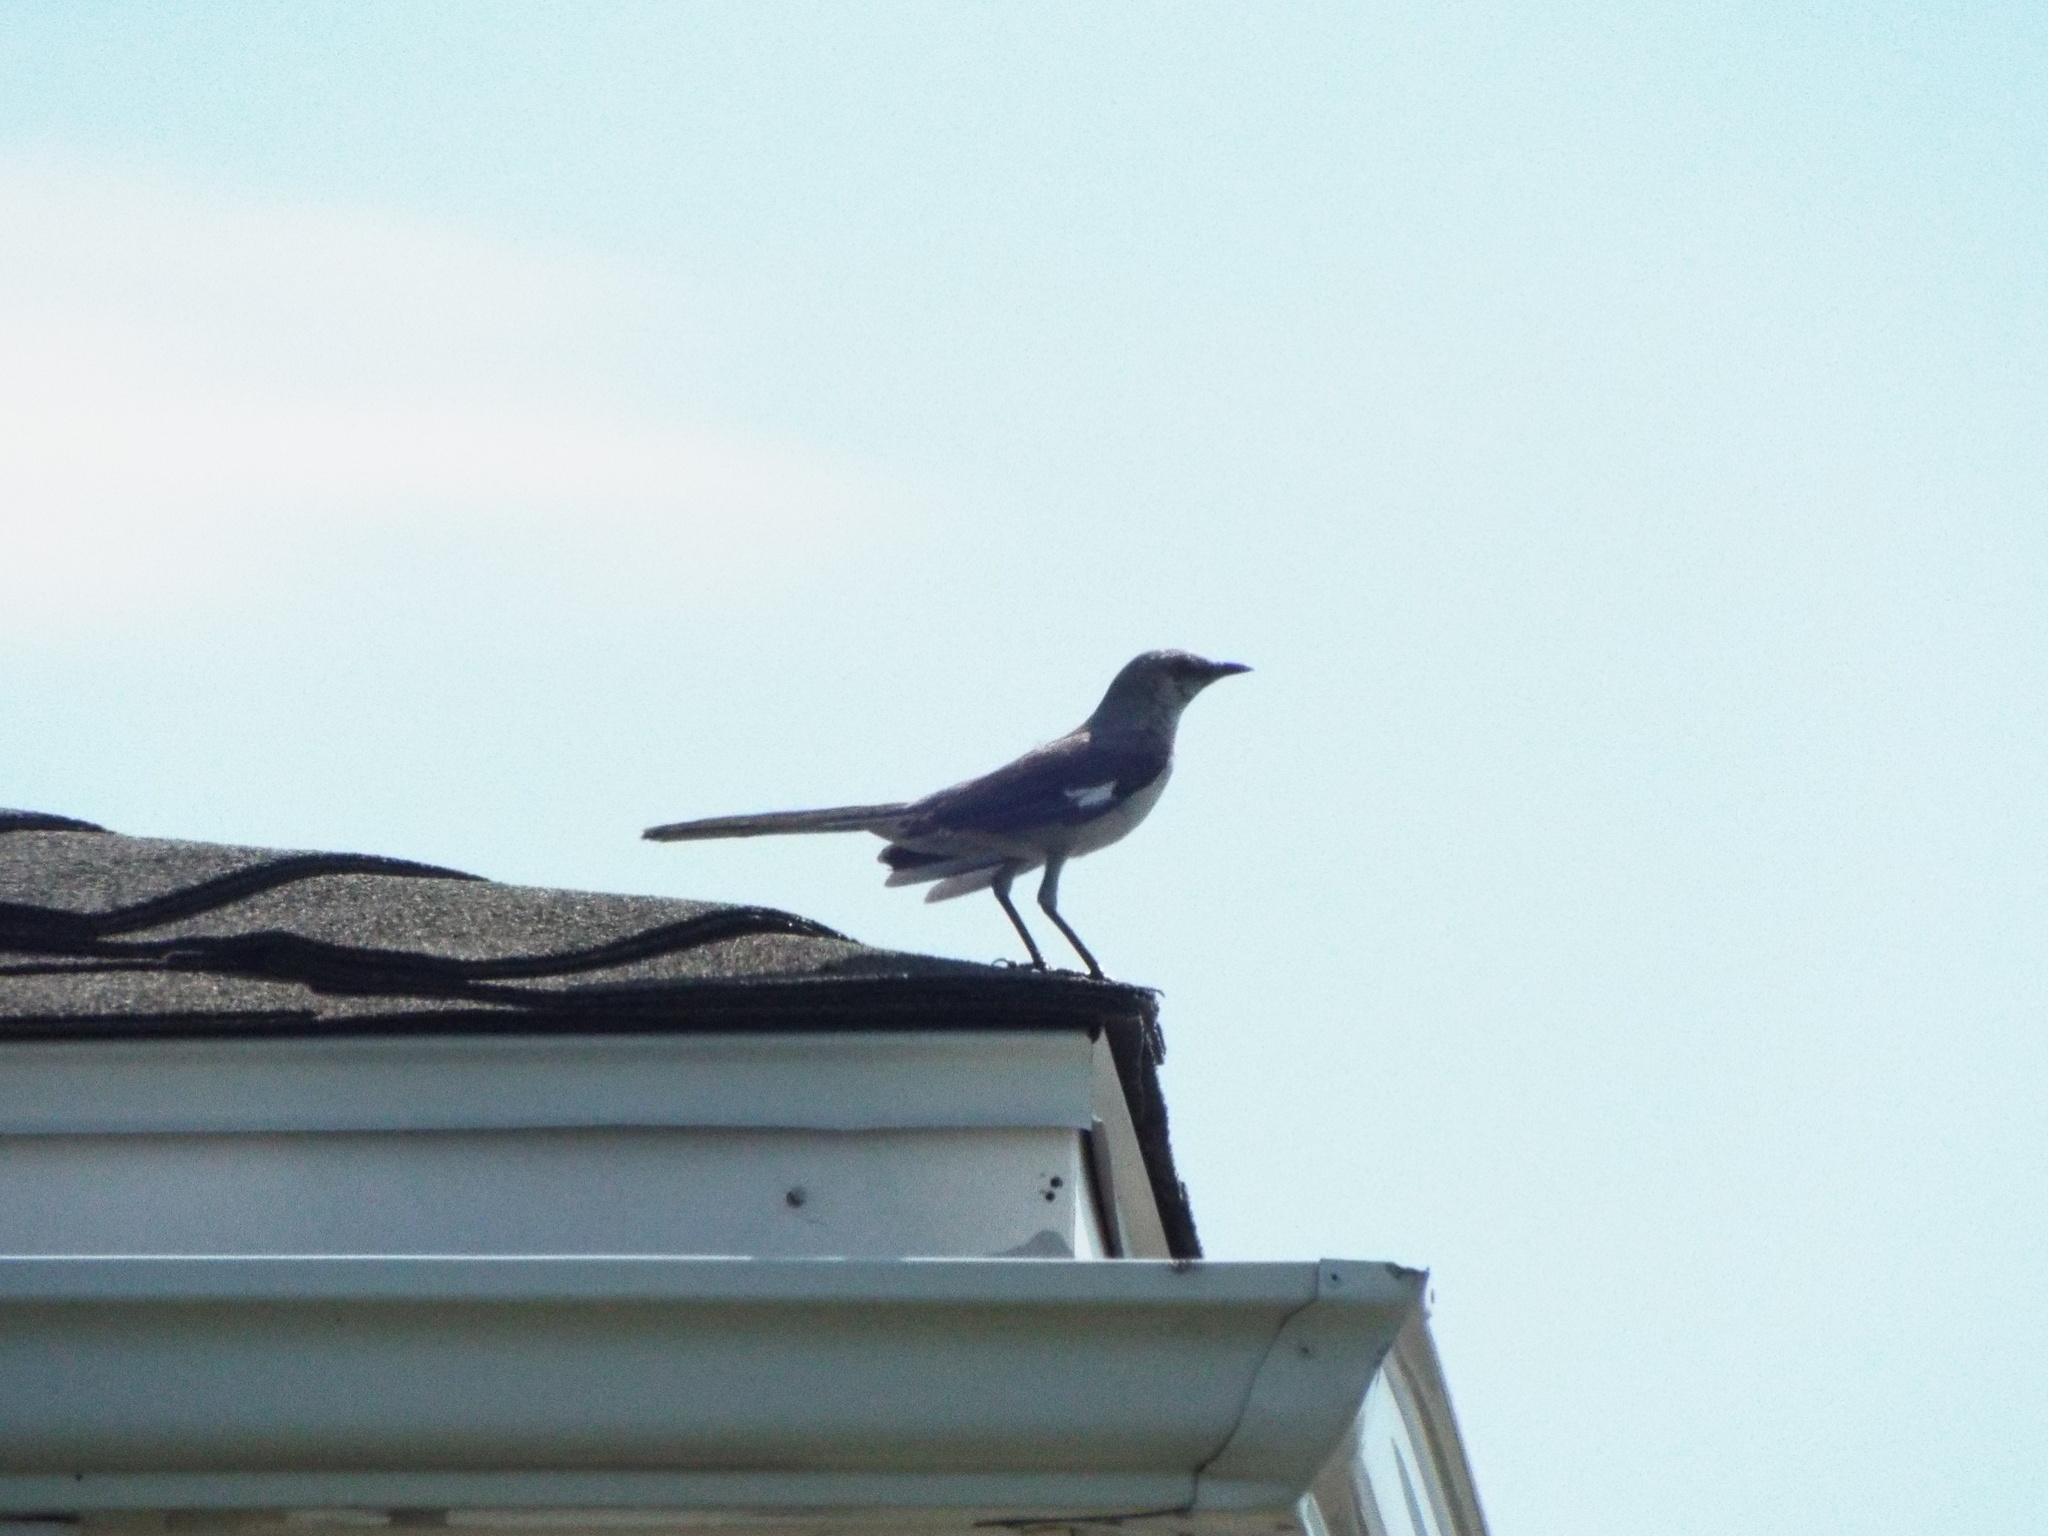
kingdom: Animalia
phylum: Chordata
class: Aves
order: Passeriformes
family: Mimidae
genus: Mimus
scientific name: Mimus polyglottos
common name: Northern mockingbird
